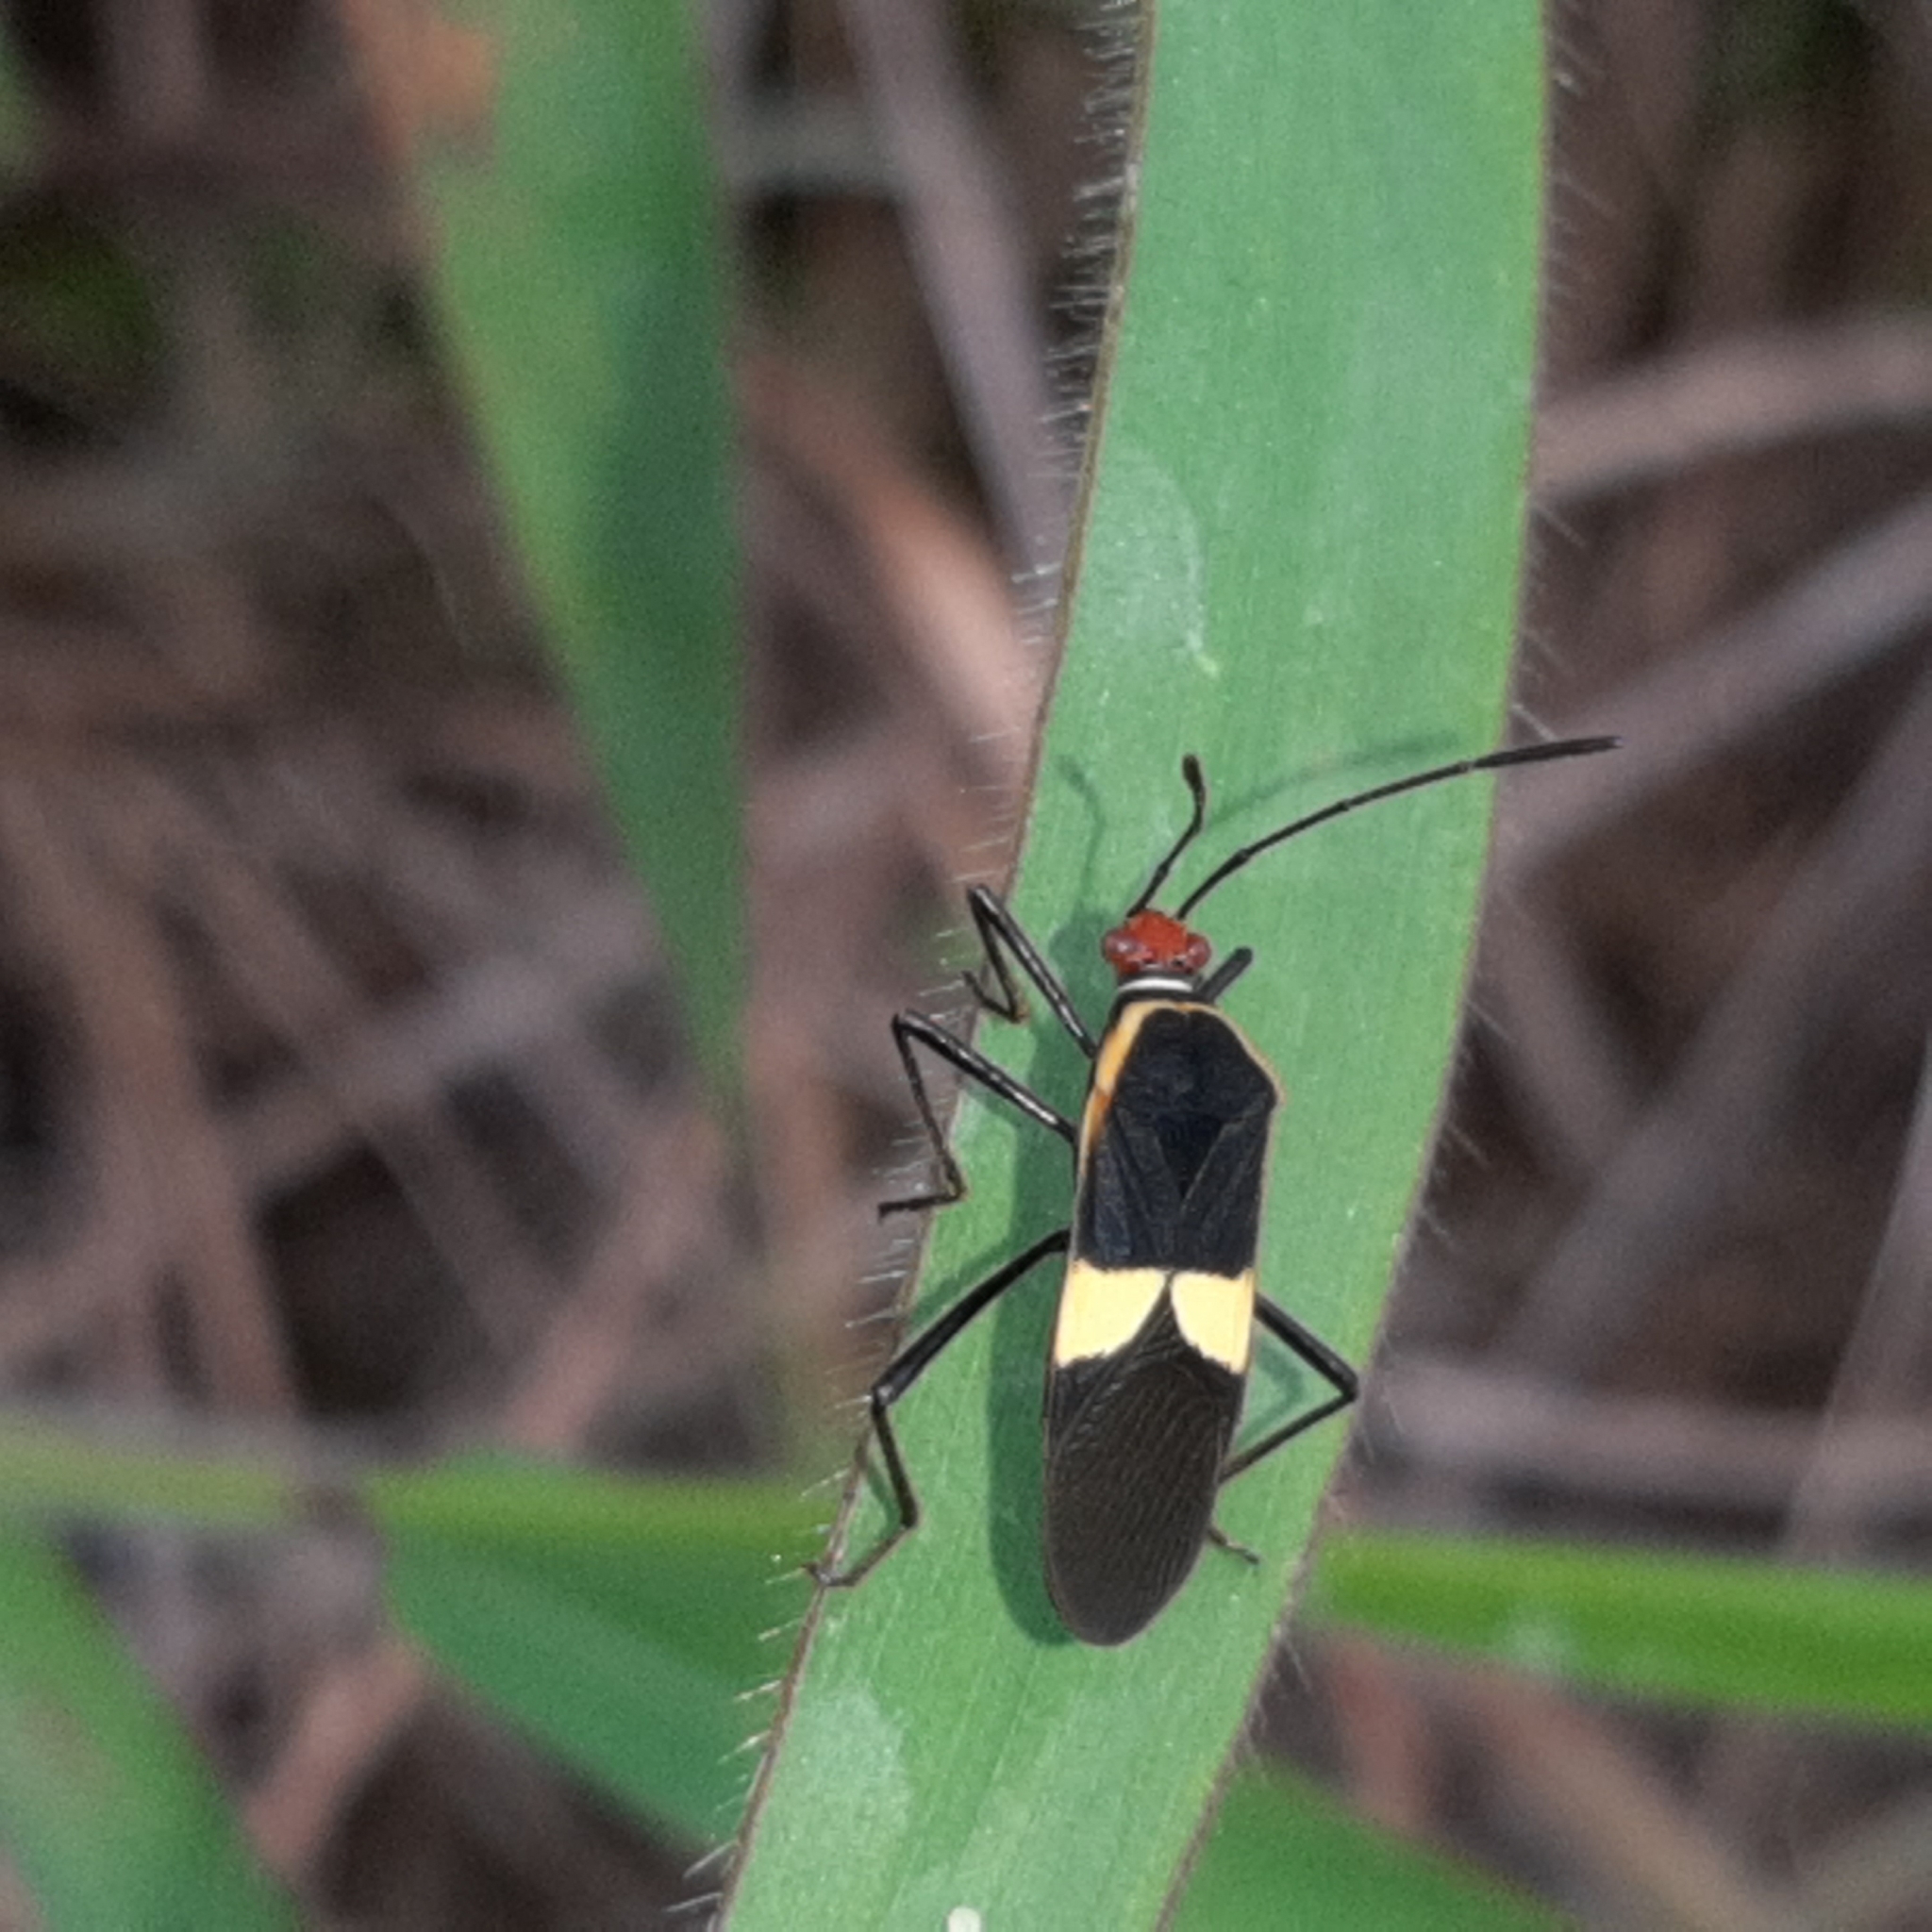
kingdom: Animalia
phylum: Arthropoda
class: Insecta
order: Hemiptera
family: Coreidae
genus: Hypselonotus
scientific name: Hypselonotus interruptus
